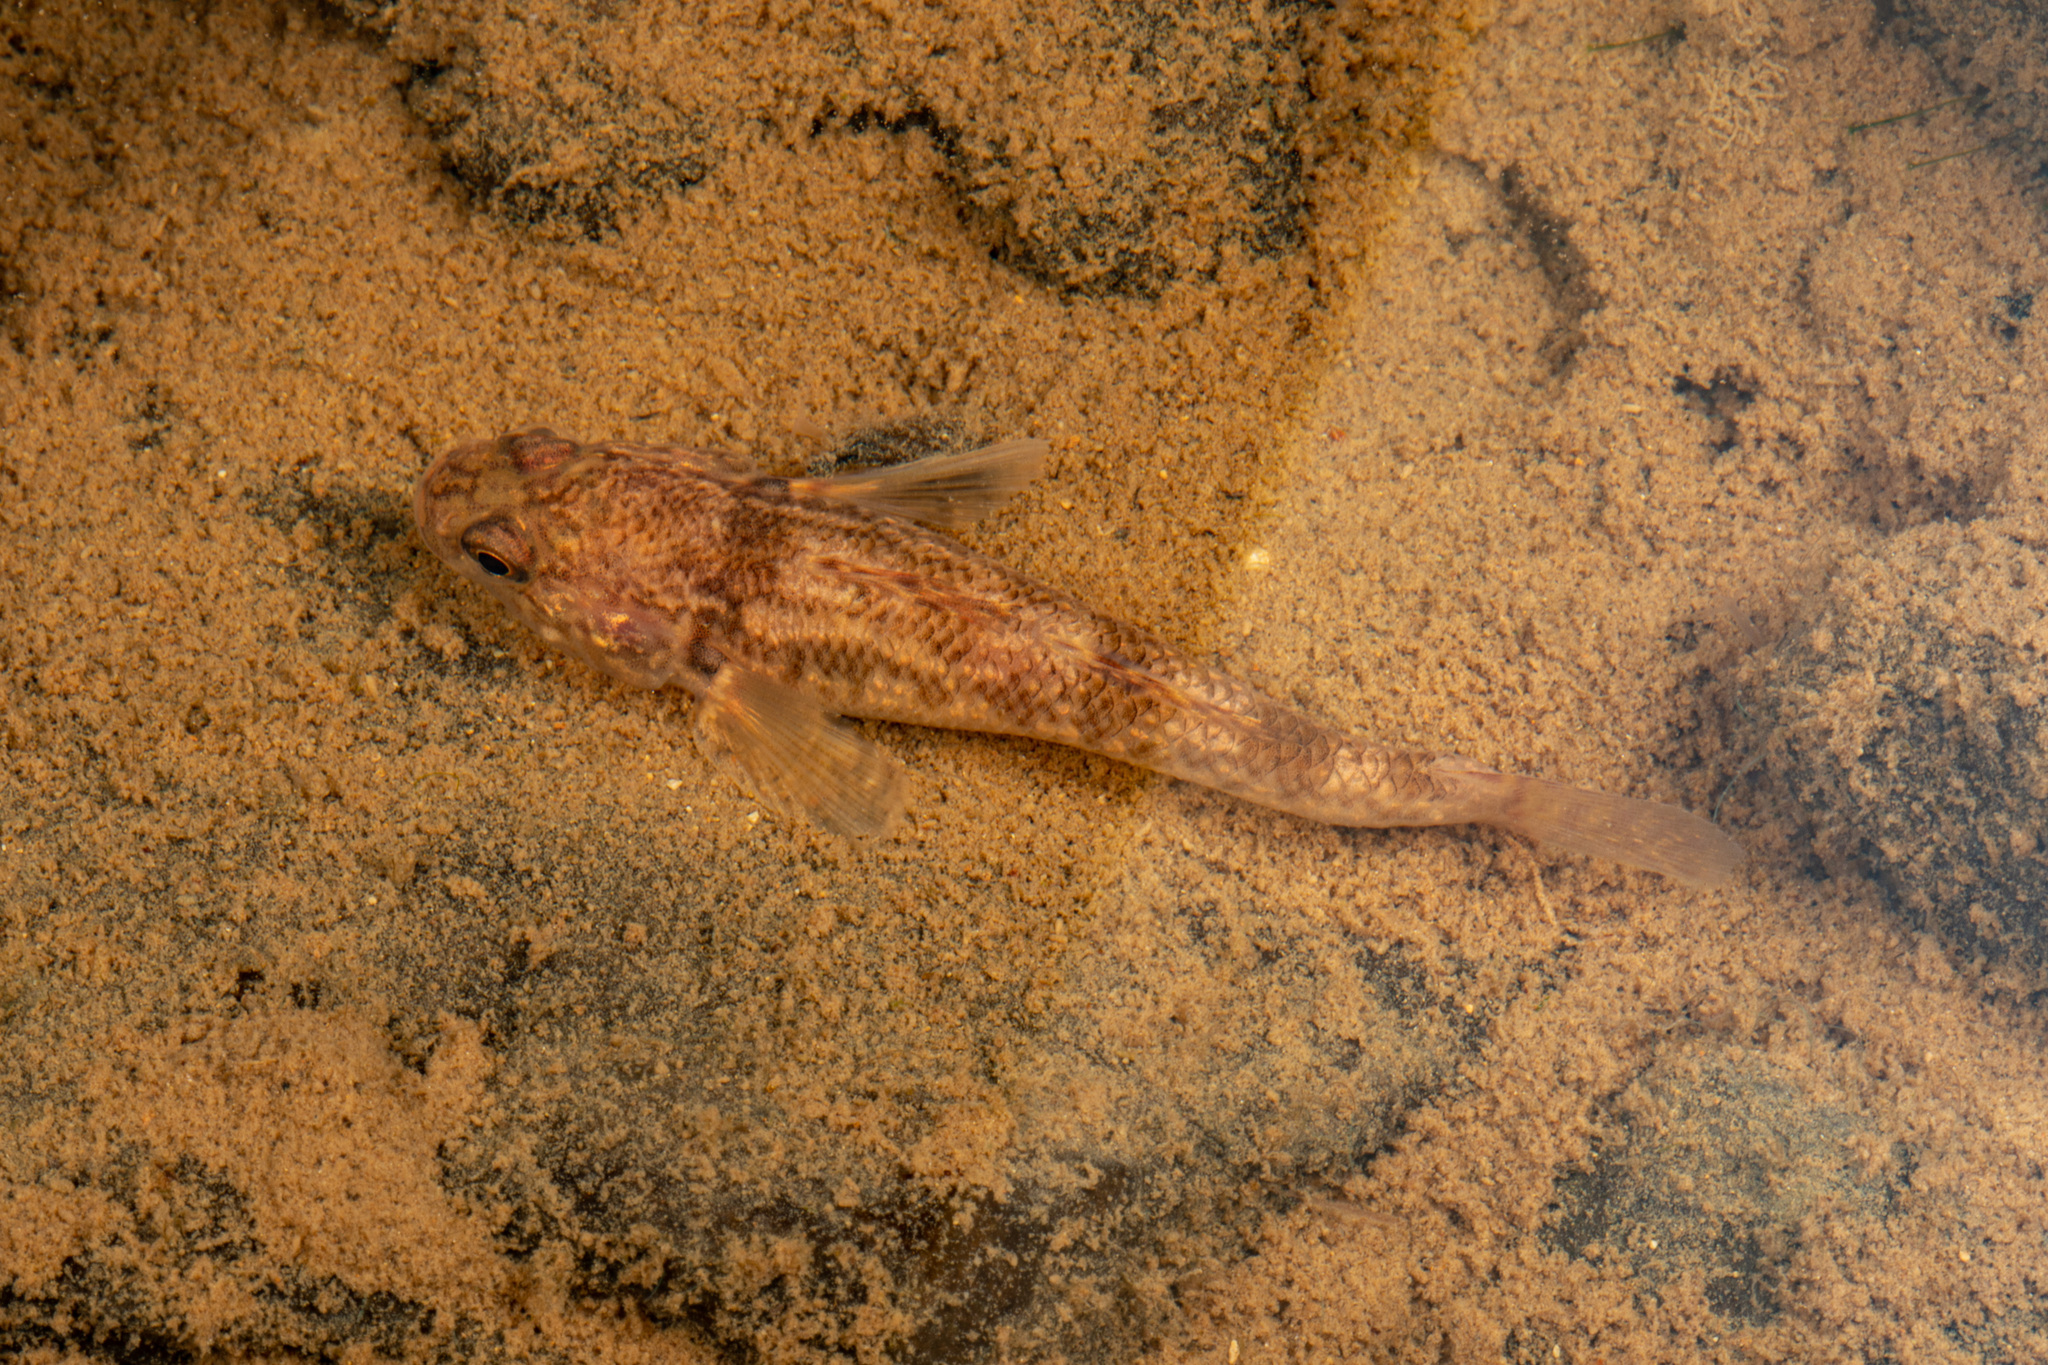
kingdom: Animalia
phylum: Chordata
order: Perciformes
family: Eleotridae
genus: Gobiomorphus
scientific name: Gobiomorphus basalis
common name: Tarndale bully
